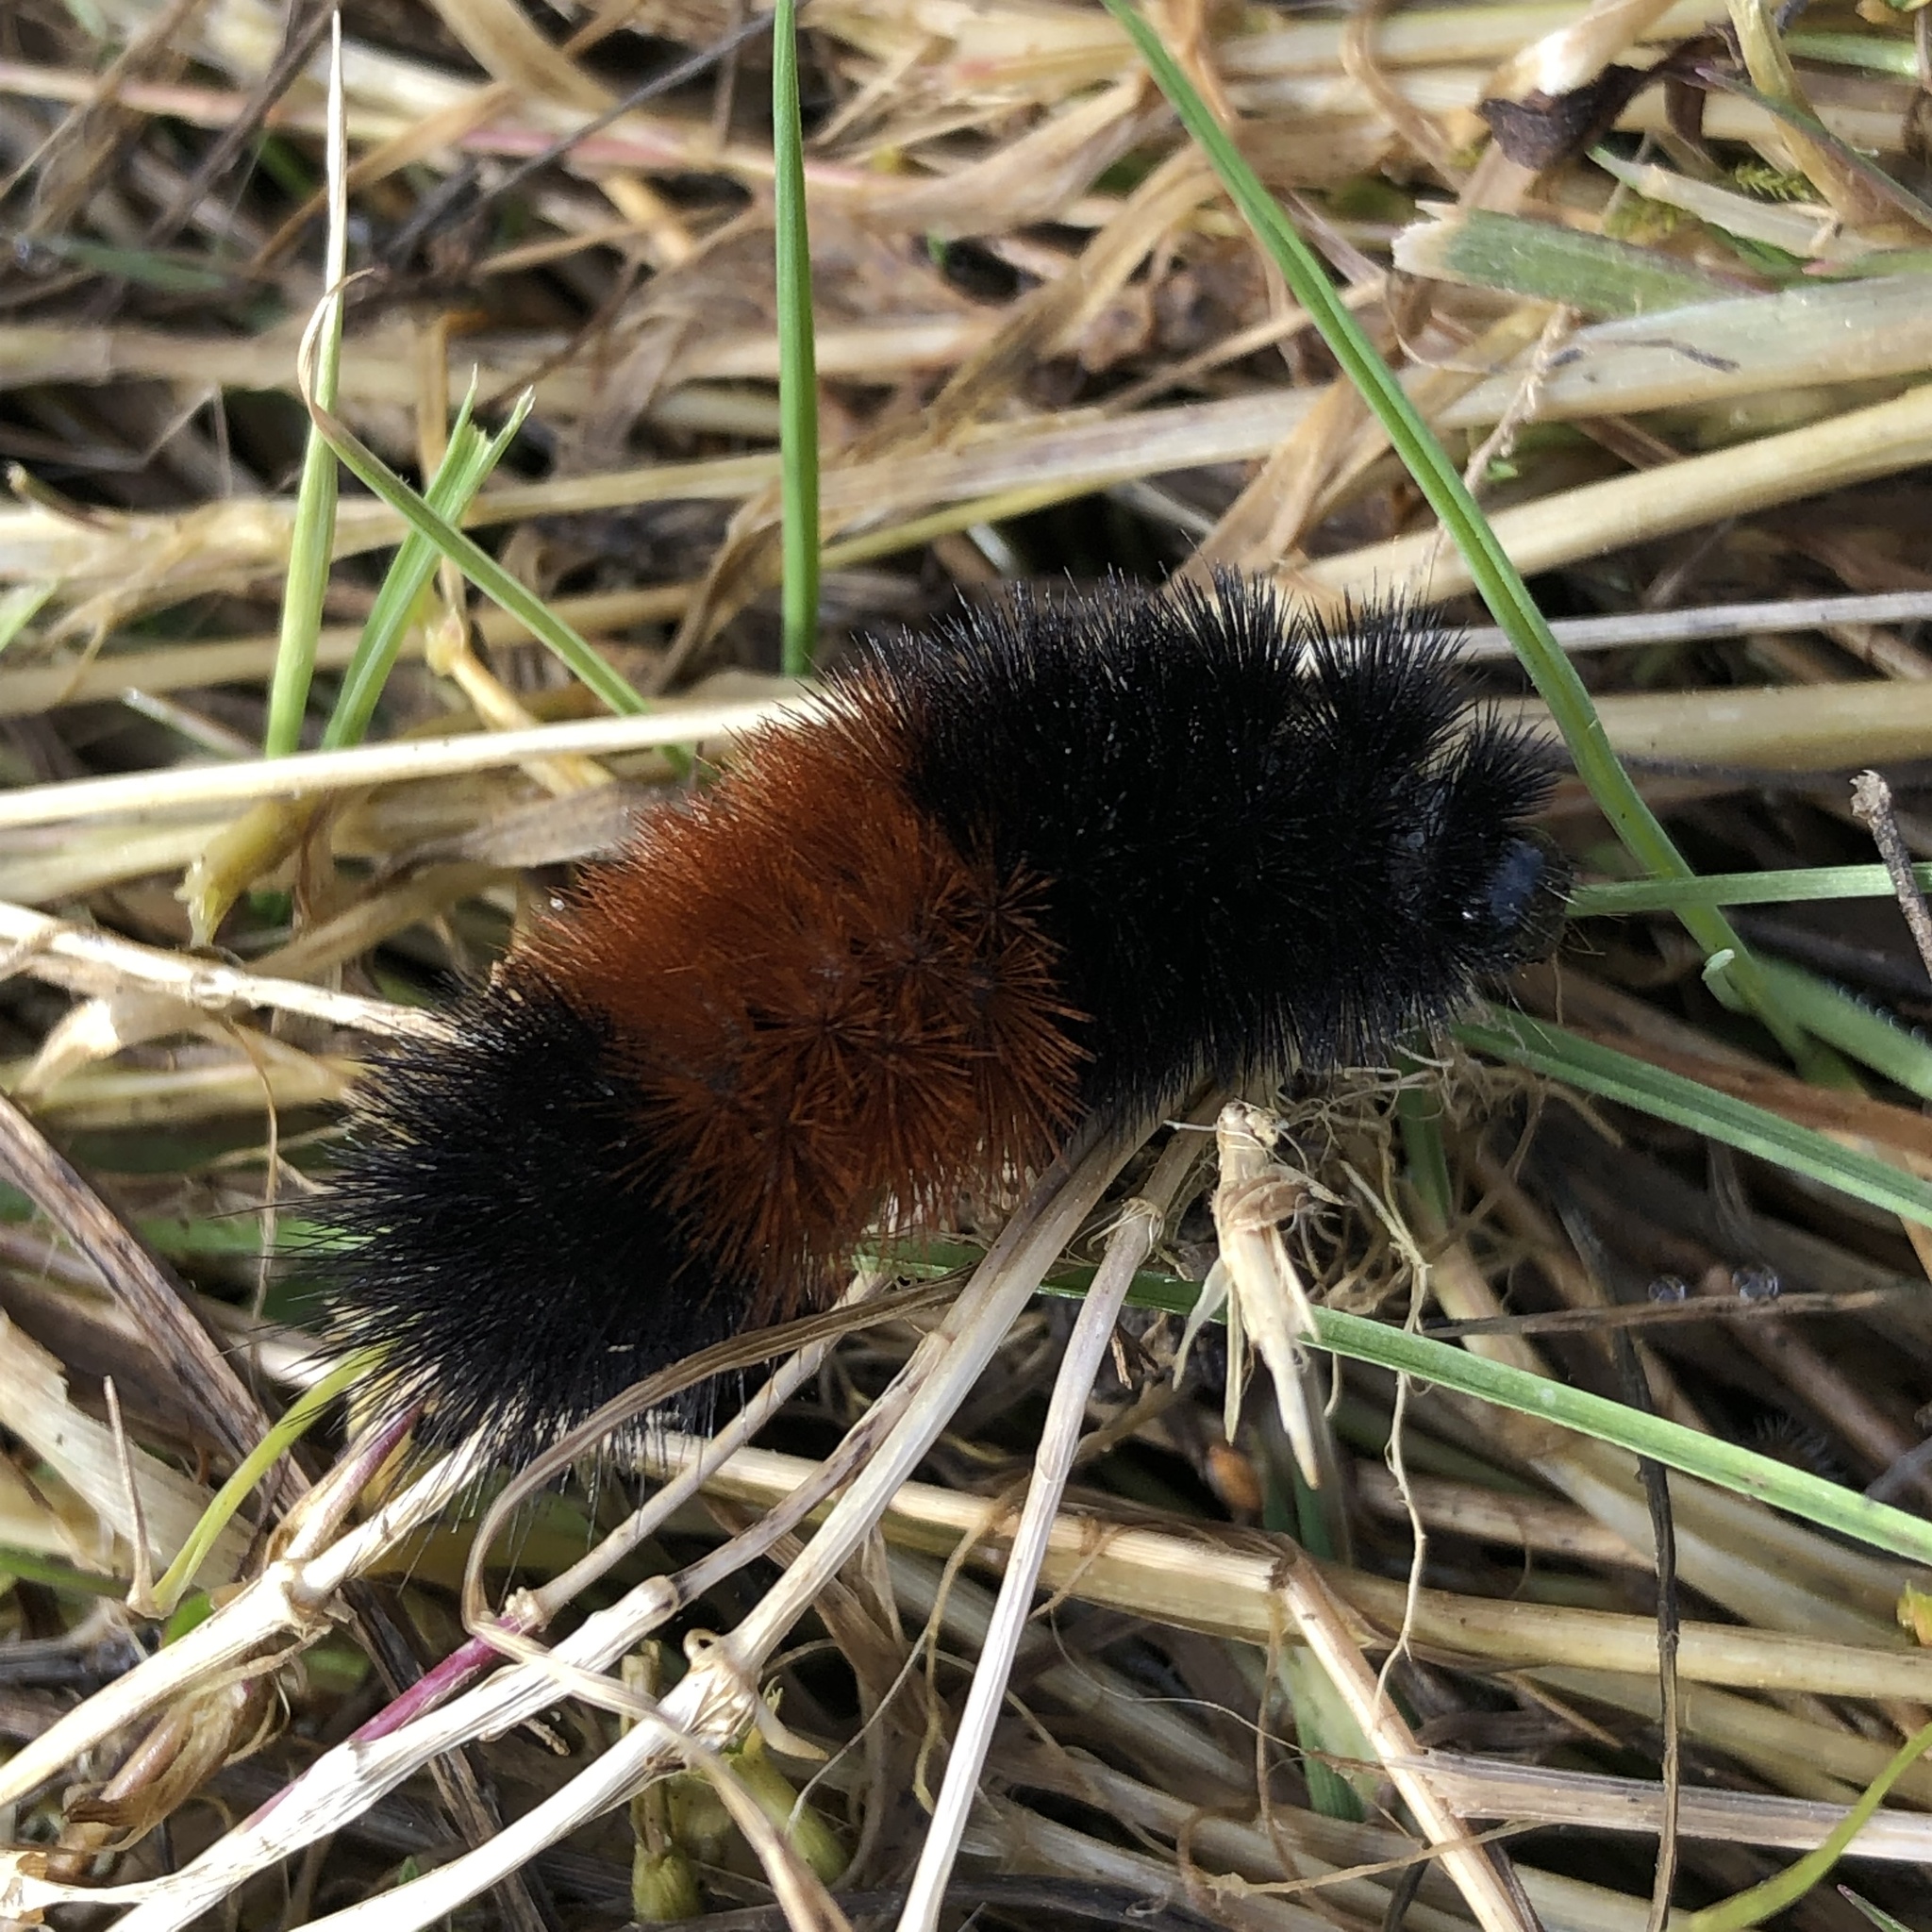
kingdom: Animalia
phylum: Arthropoda
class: Insecta
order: Lepidoptera
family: Erebidae
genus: Pyrrharctia
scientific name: Pyrrharctia isabella
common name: Isabella tiger moth
